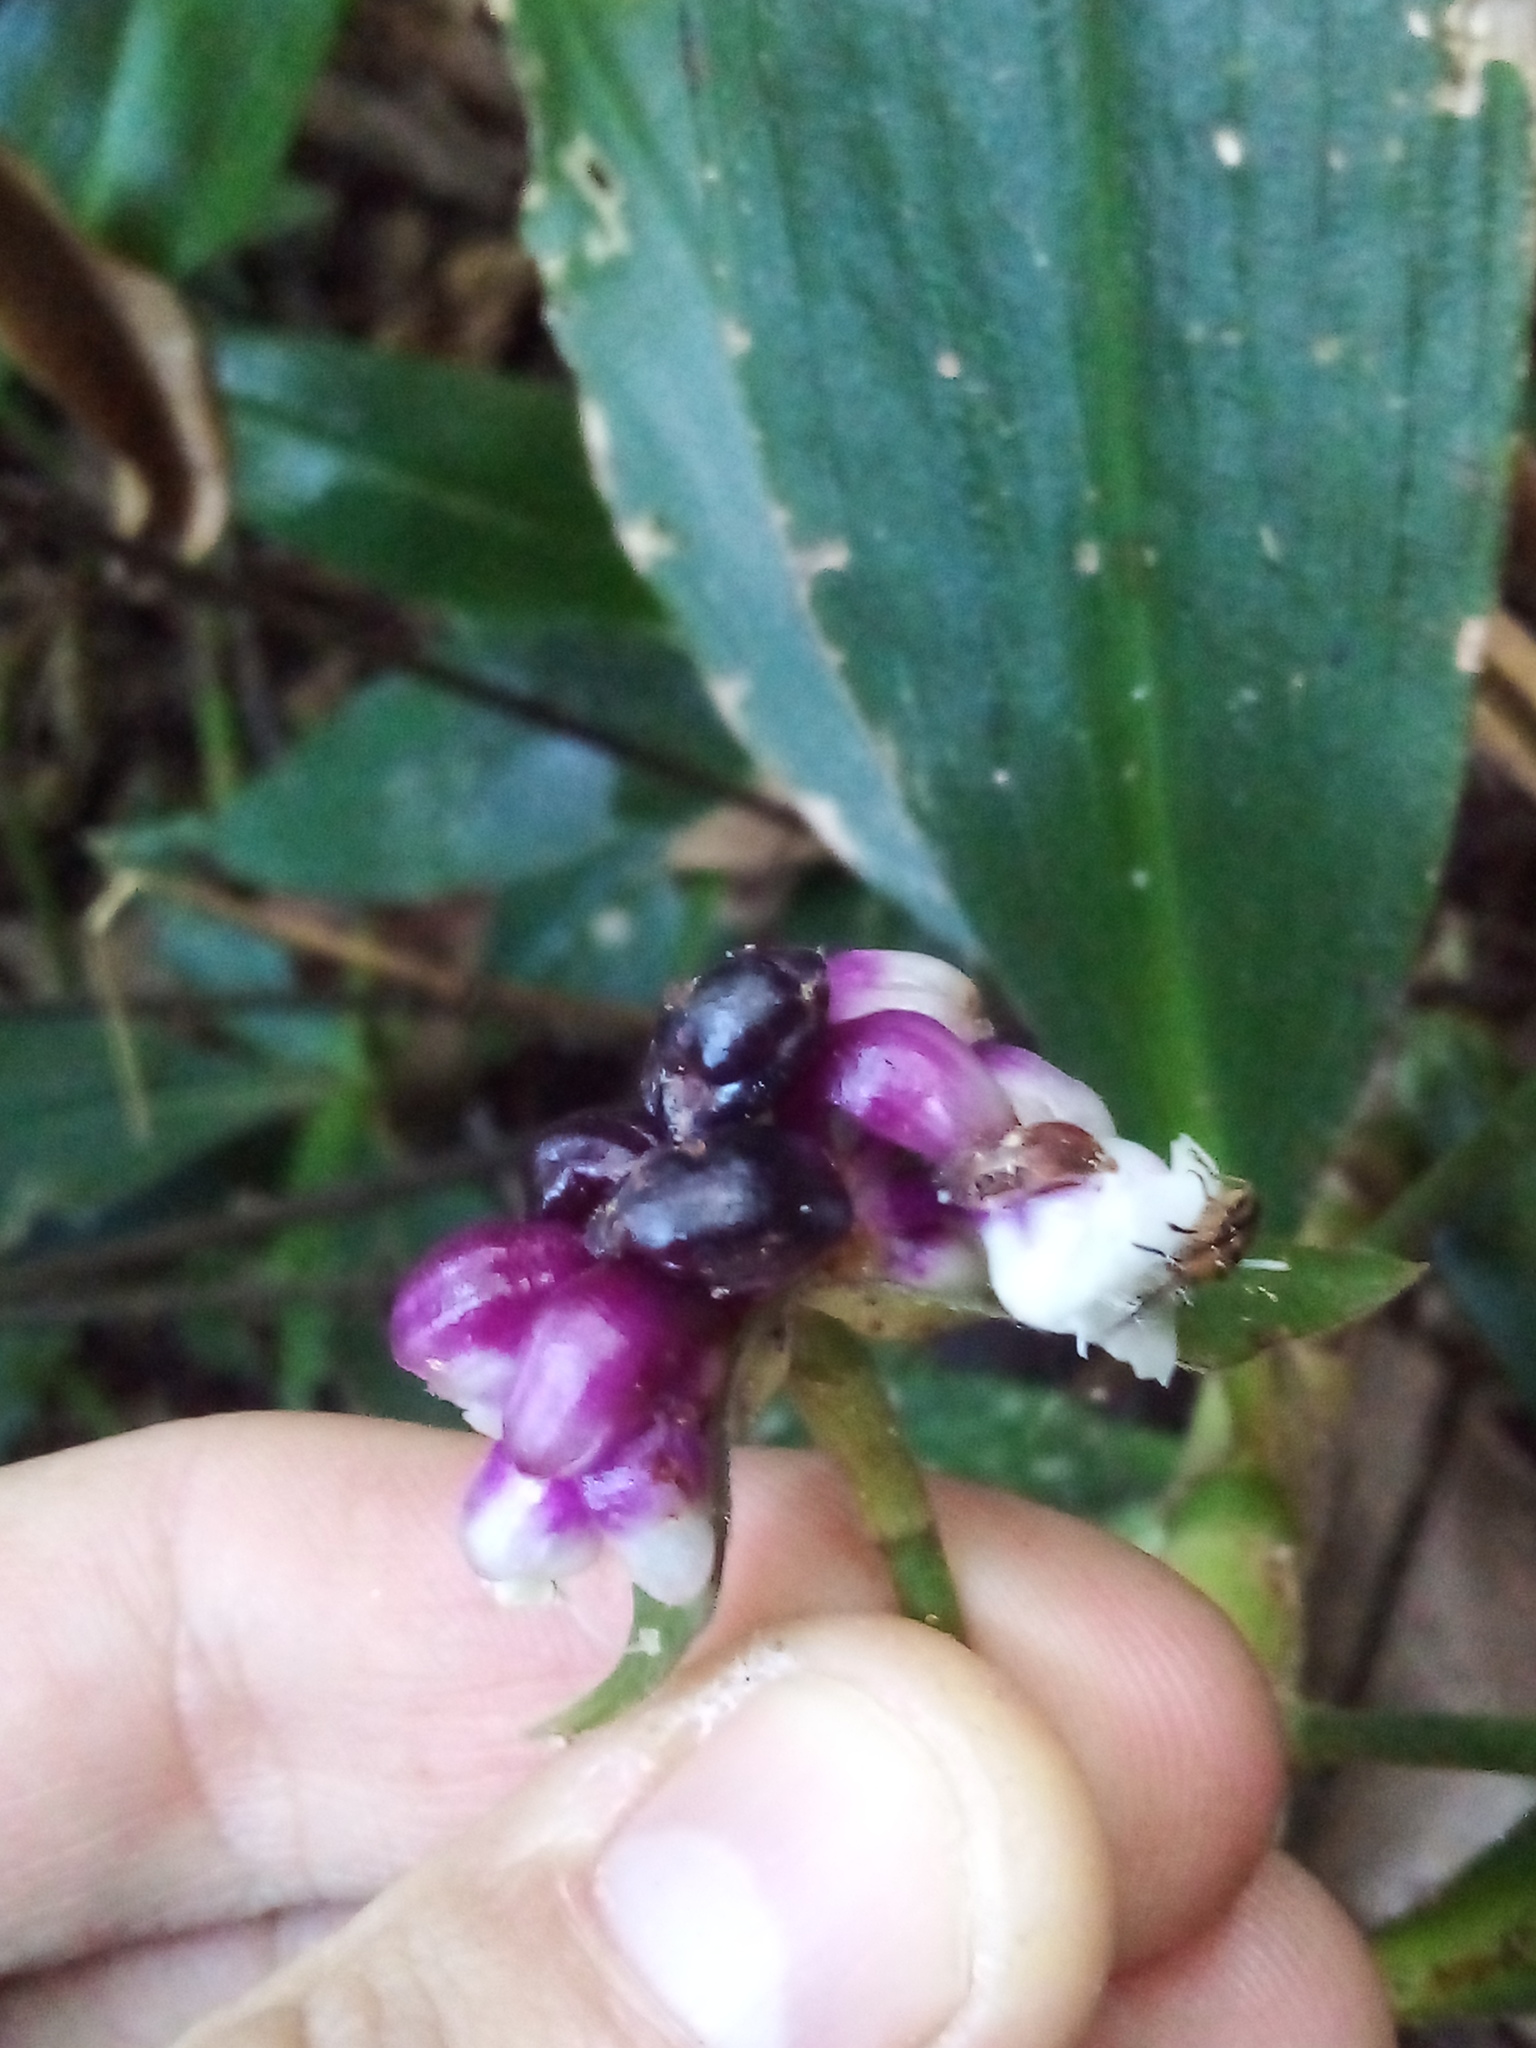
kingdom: Plantae
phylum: Tracheophyta
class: Liliopsida
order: Commelinales
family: Commelinaceae
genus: Tradescantia
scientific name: Tradescantia zanonia
